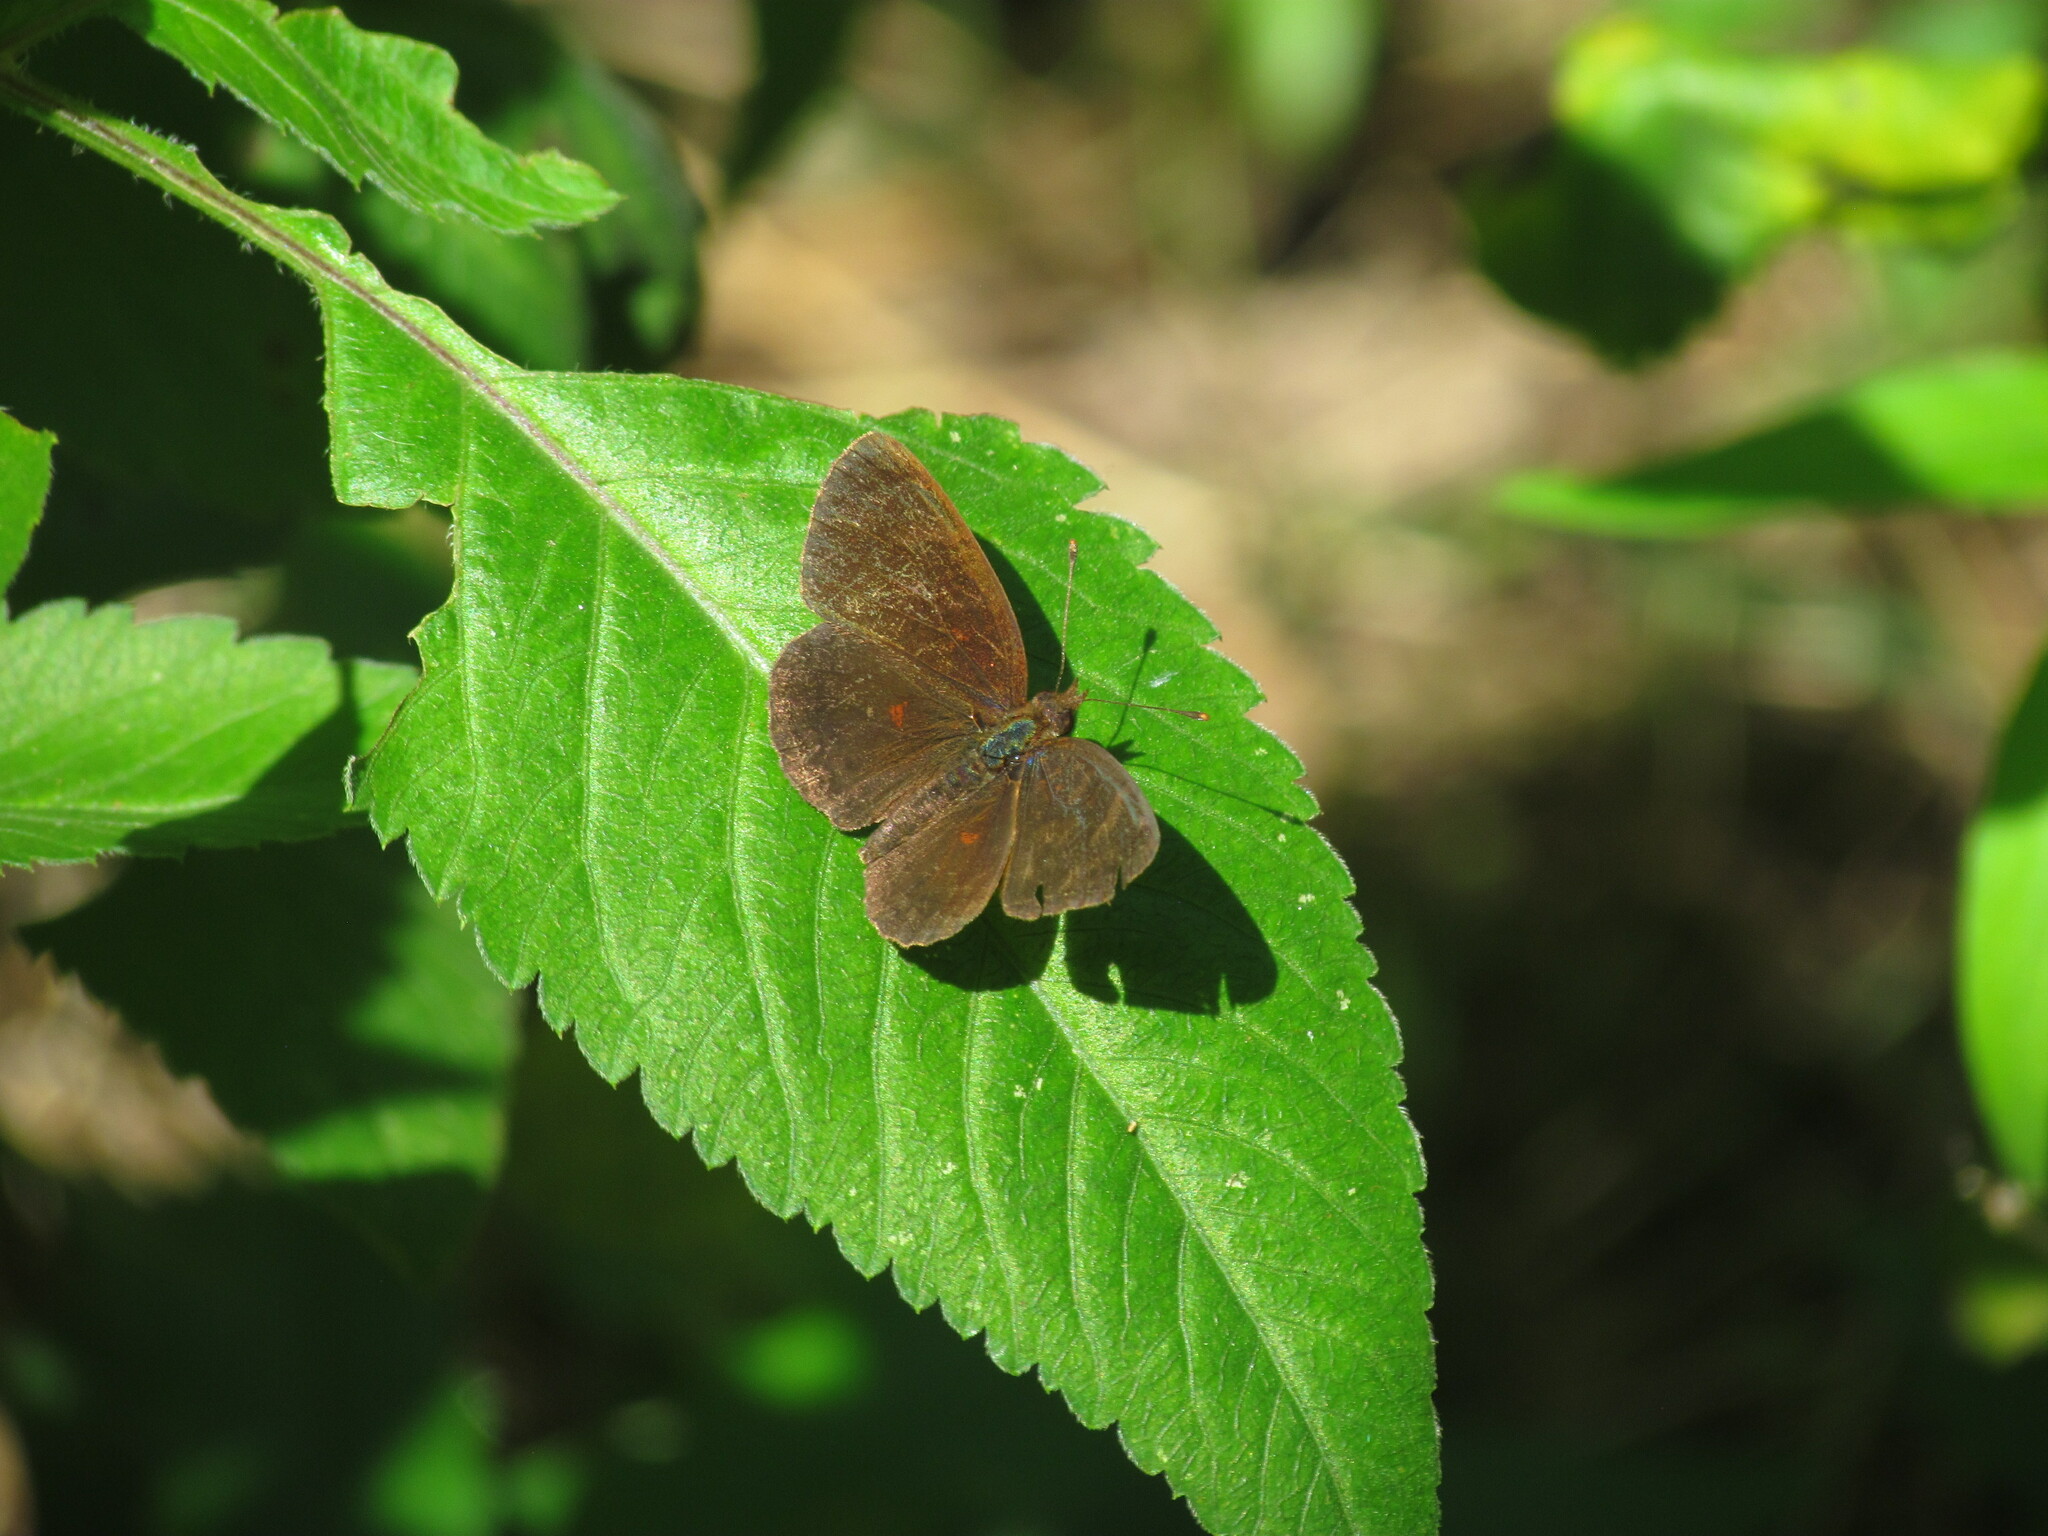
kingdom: Animalia
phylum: Arthropoda
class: Insecta
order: Lepidoptera
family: Nymphalidae
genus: Ortilia
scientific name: Ortilia velica
